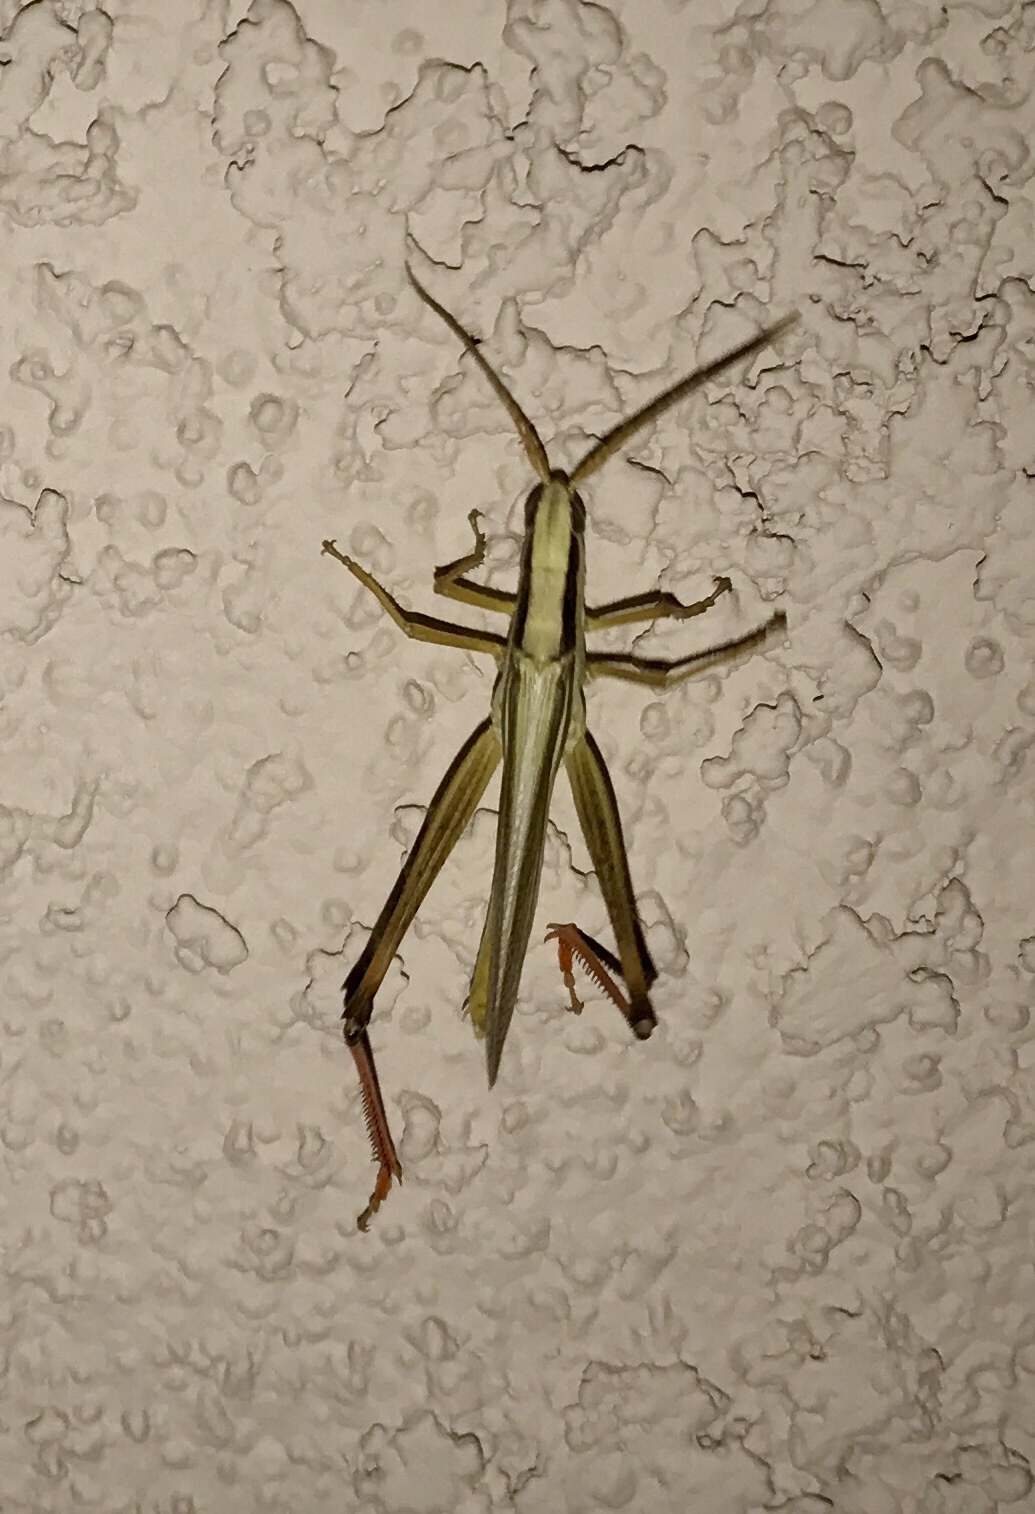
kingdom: Animalia
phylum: Arthropoda
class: Insecta
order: Orthoptera
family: Acrididae
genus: Mermiria
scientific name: Mermiria bivittata
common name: Two-striped mermiria grasshopper
